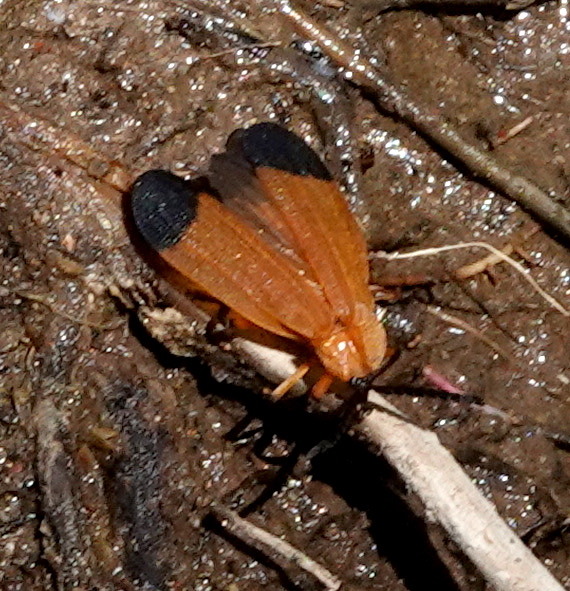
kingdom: Animalia
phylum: Arthropoda
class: Insecta
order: Coleoptera
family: Lycidae
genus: Lycus
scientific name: Lycus arizonensis
